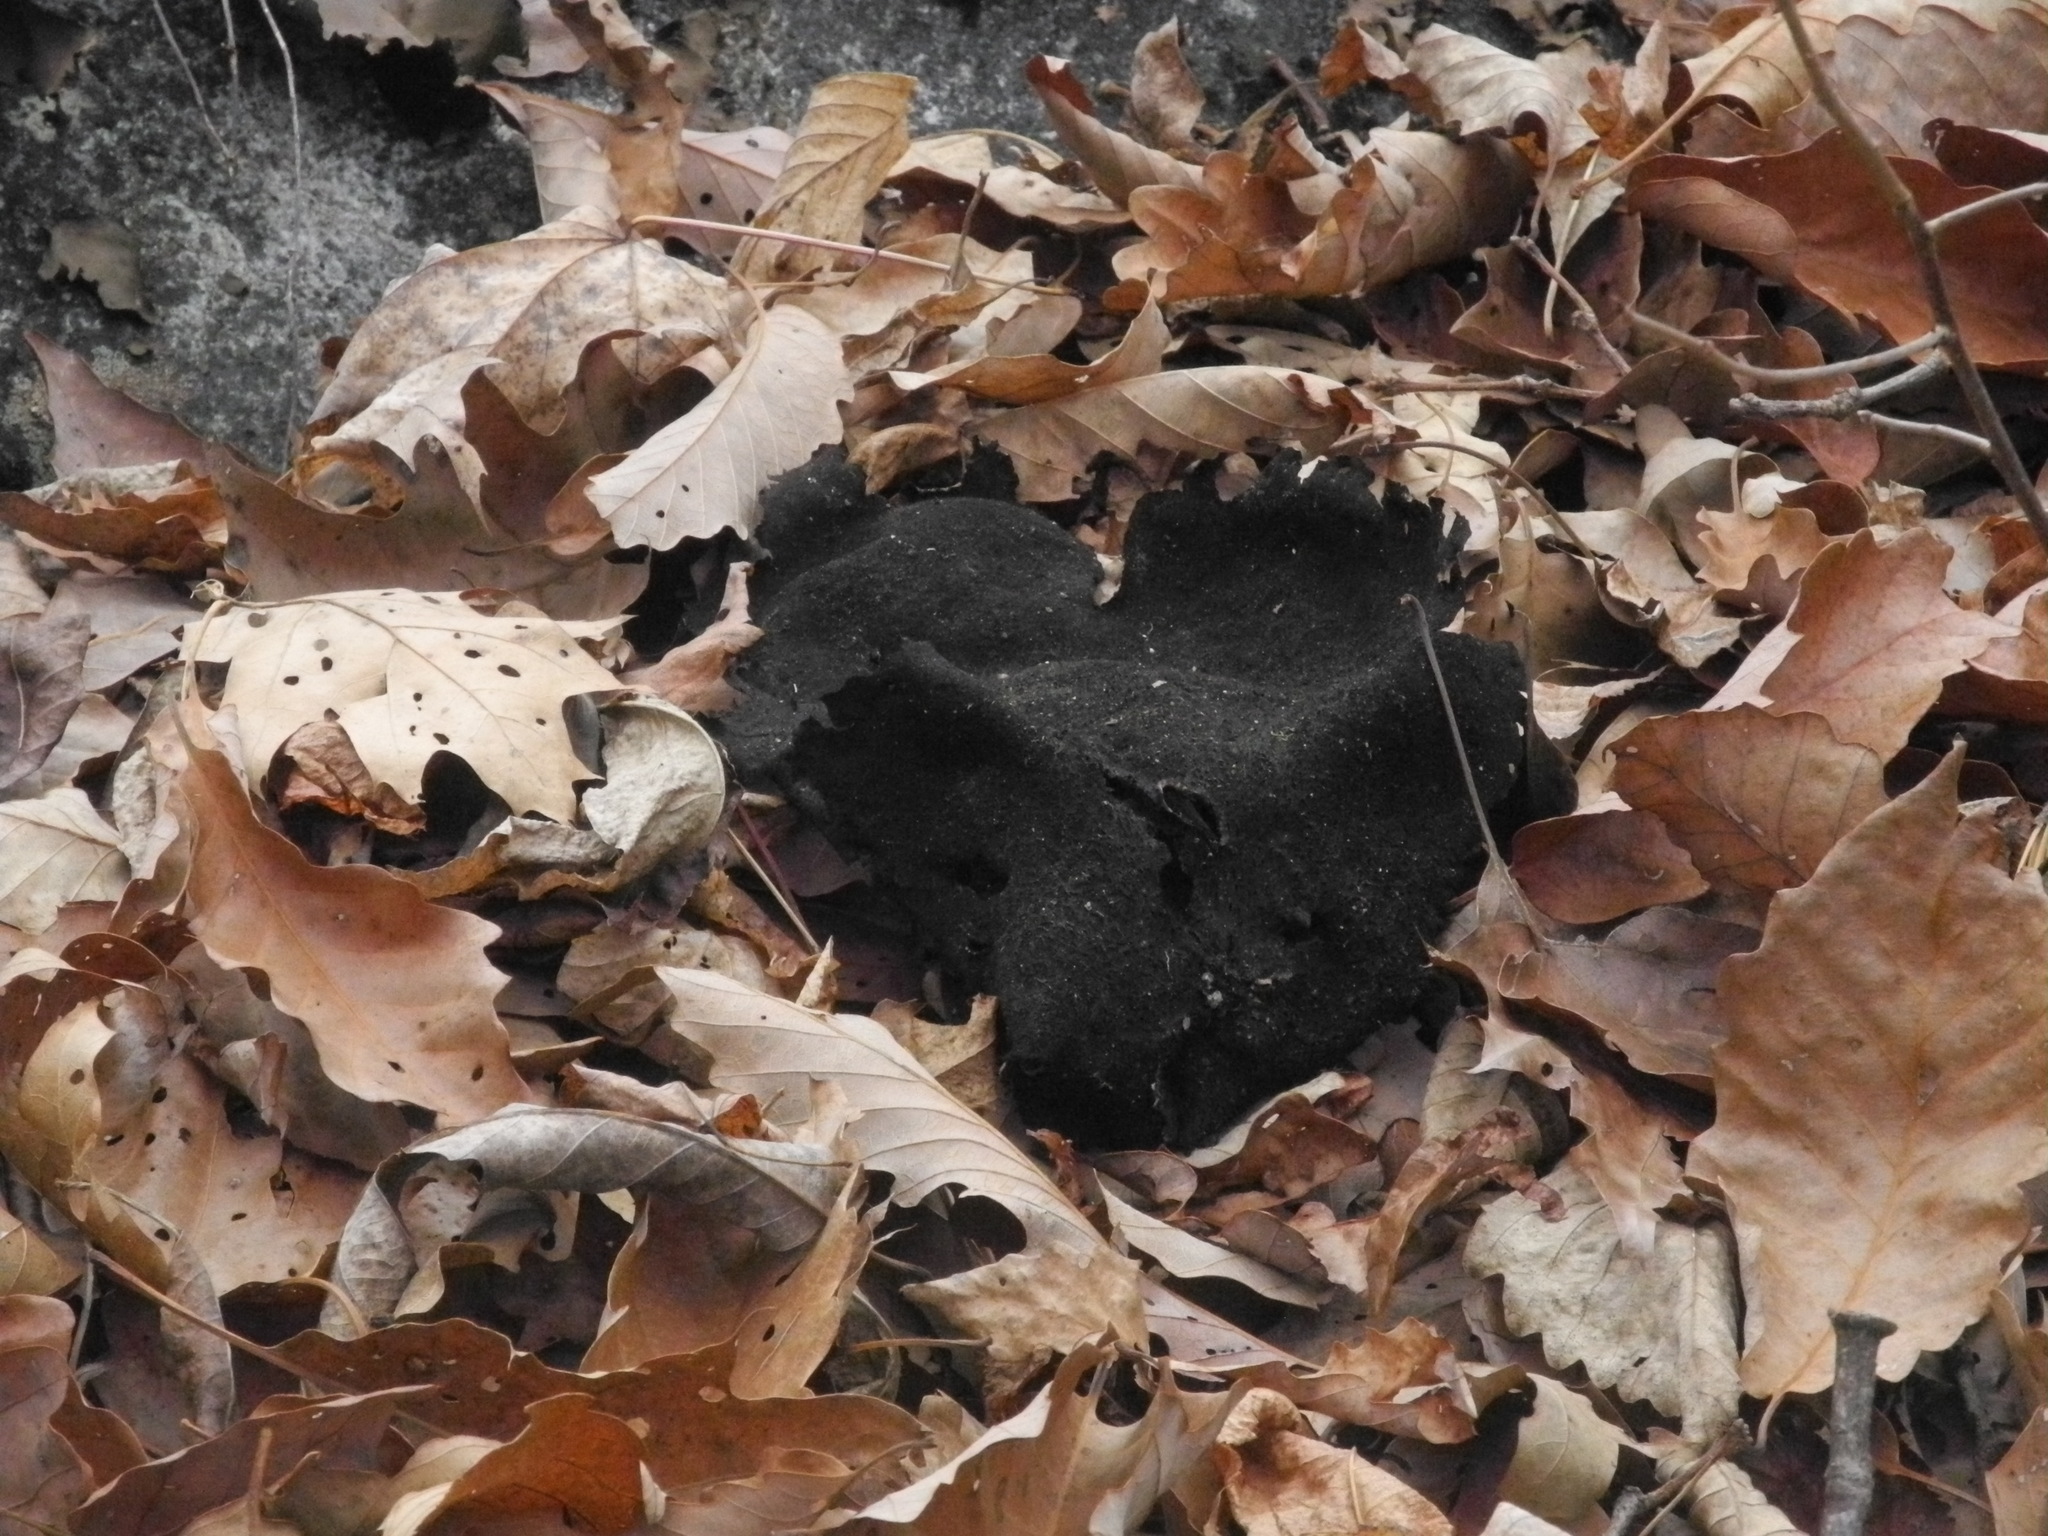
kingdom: Fungi
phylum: Ascomycota
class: Lecanoromycetes
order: Umbilicariales
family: Umbilicariaceae
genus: Umbilicaria
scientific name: Umbilicaria mammulata
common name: Smooth rock tripe
